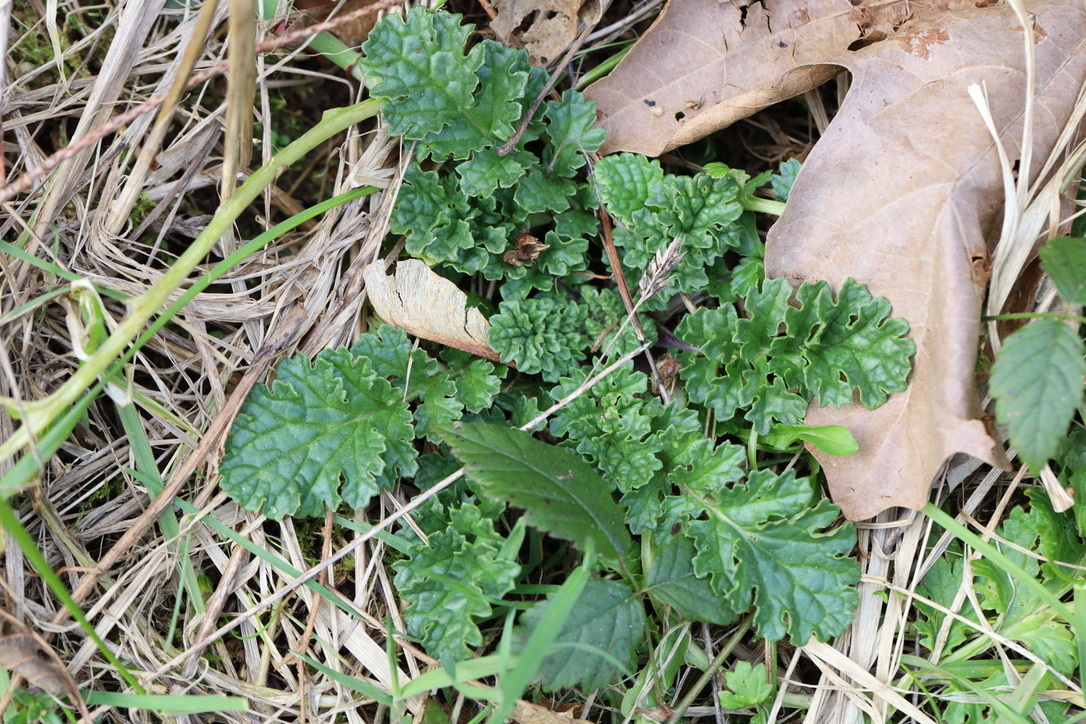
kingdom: Plantae
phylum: Tracheophyta
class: Magnoliopsida
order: Asterales
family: Asteraceae
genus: Jacobaea
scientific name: Jacobaea vulgaris
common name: Stinking willie
